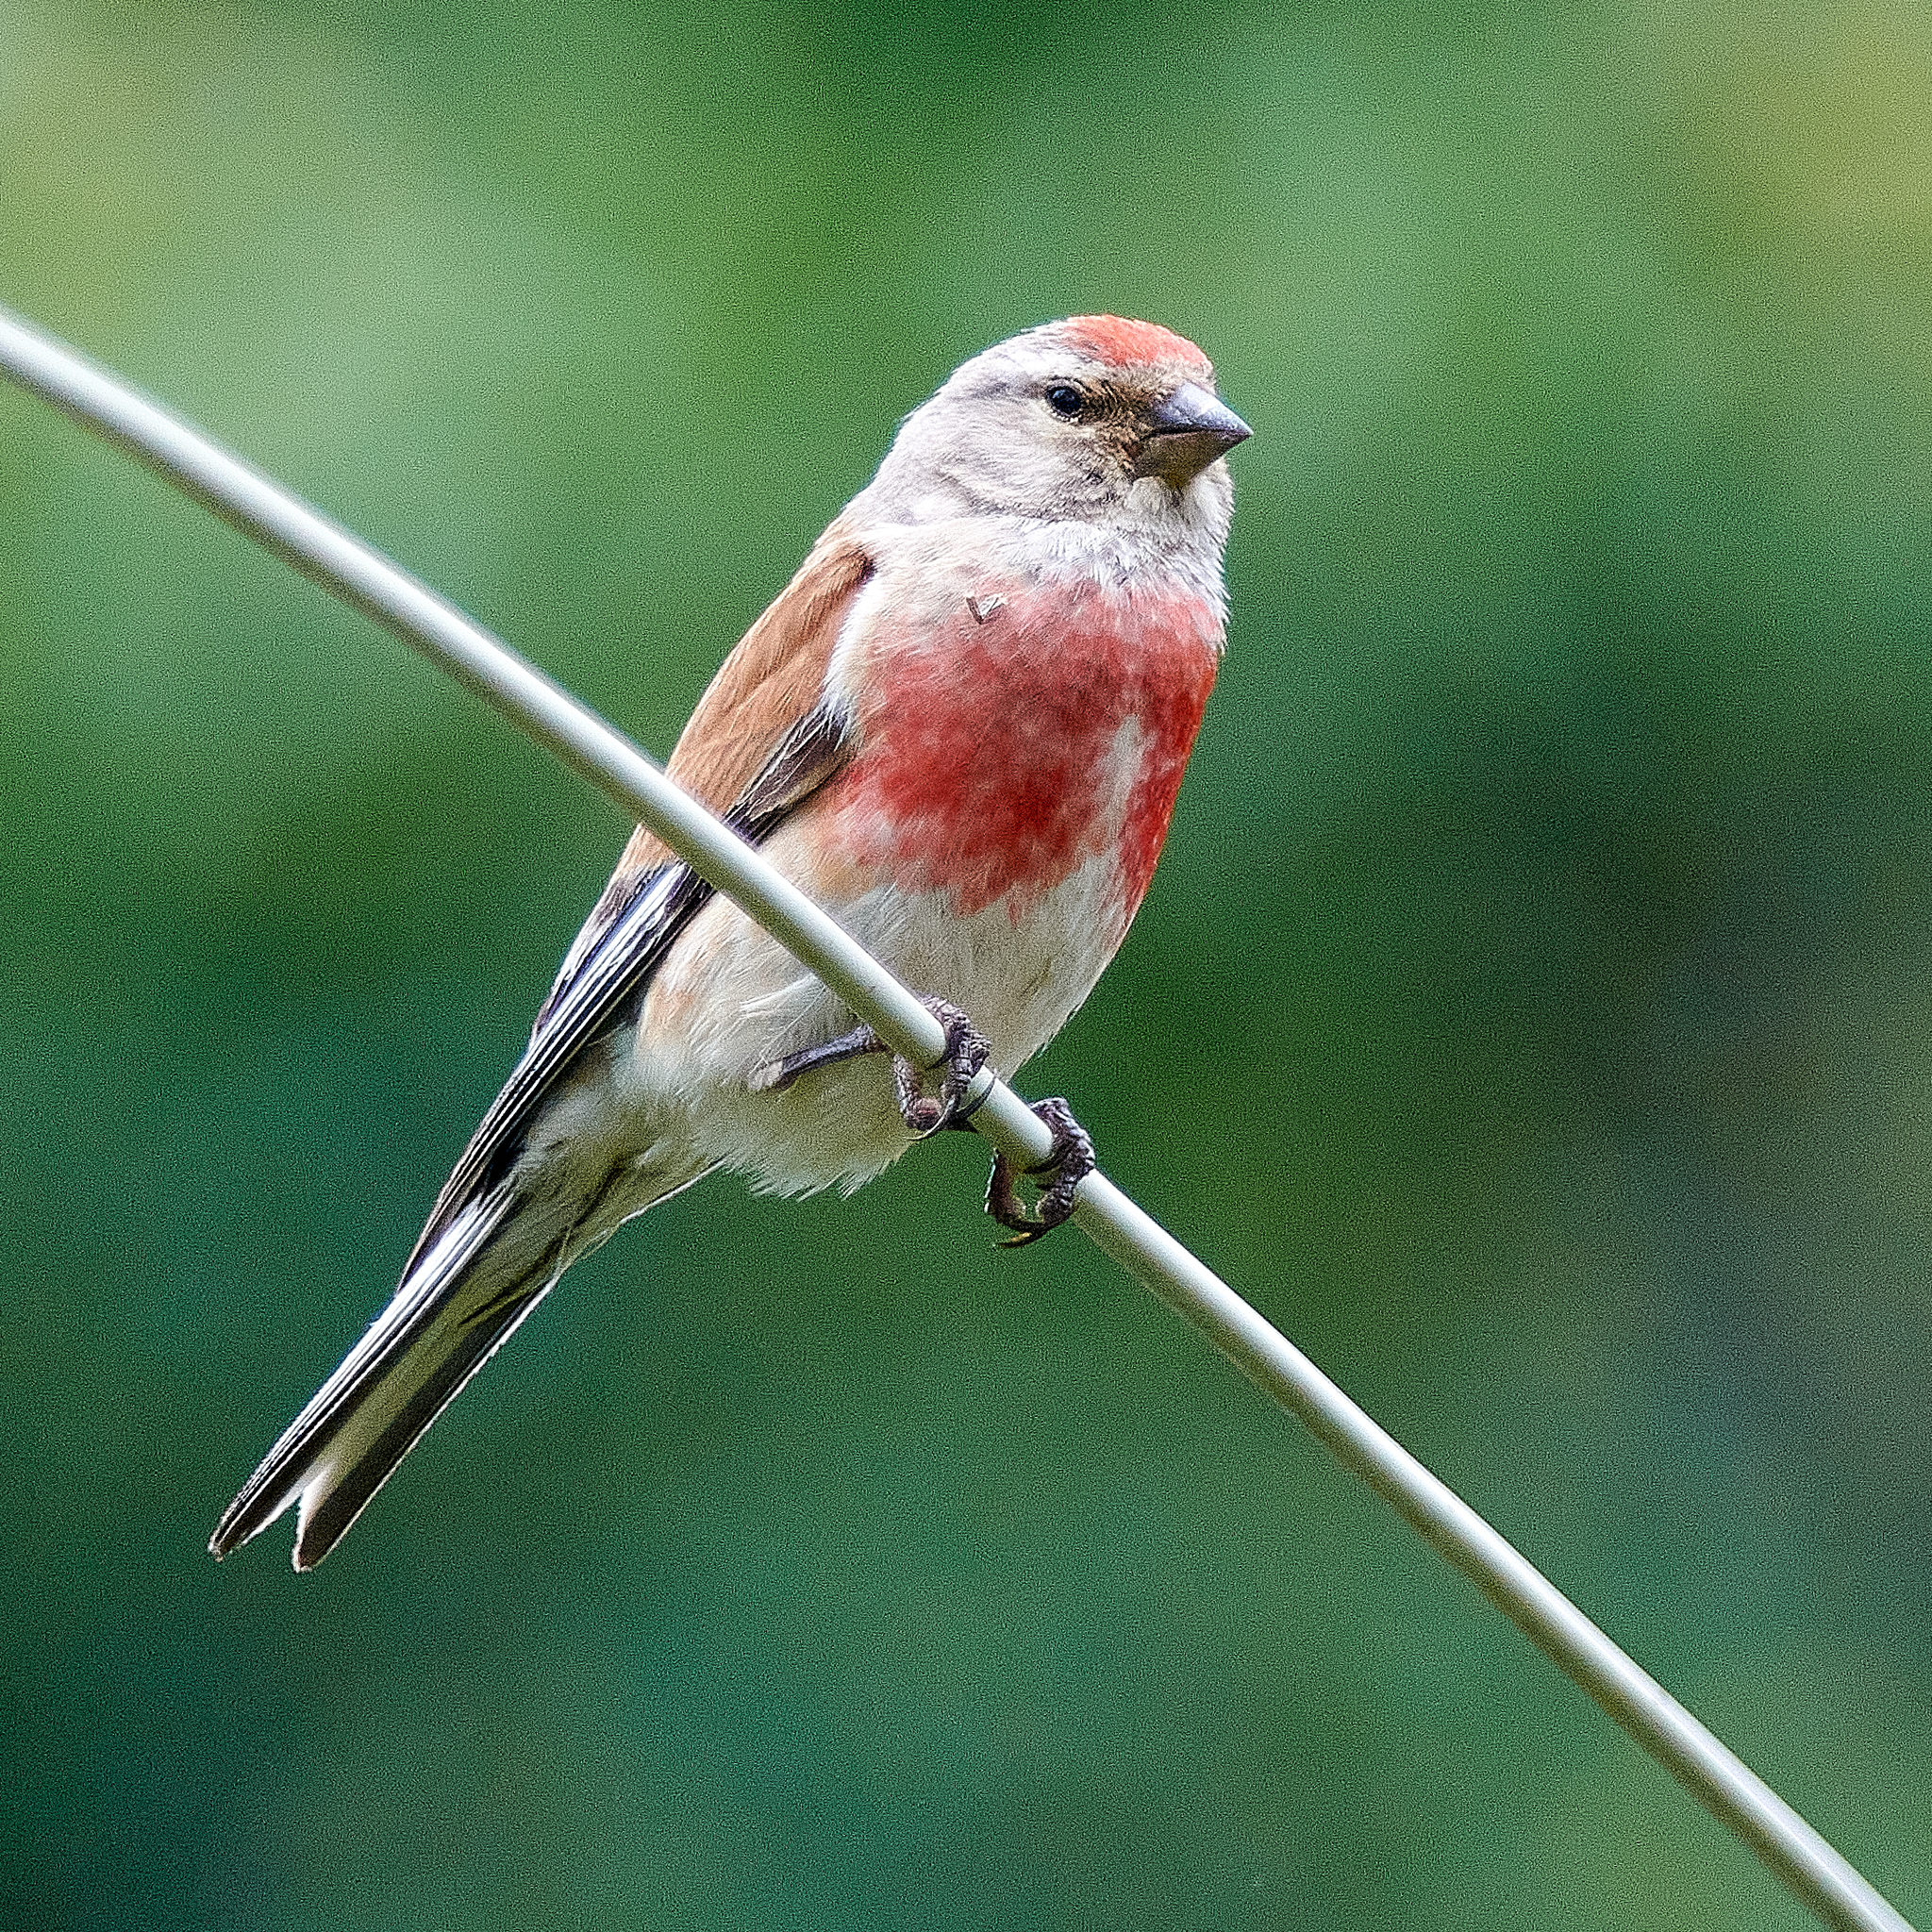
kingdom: Animalia
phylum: Chordata
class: Aves
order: Passeriformes
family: Fringillidae
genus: Linaria
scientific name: Linaria cannabina
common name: Common linnet
